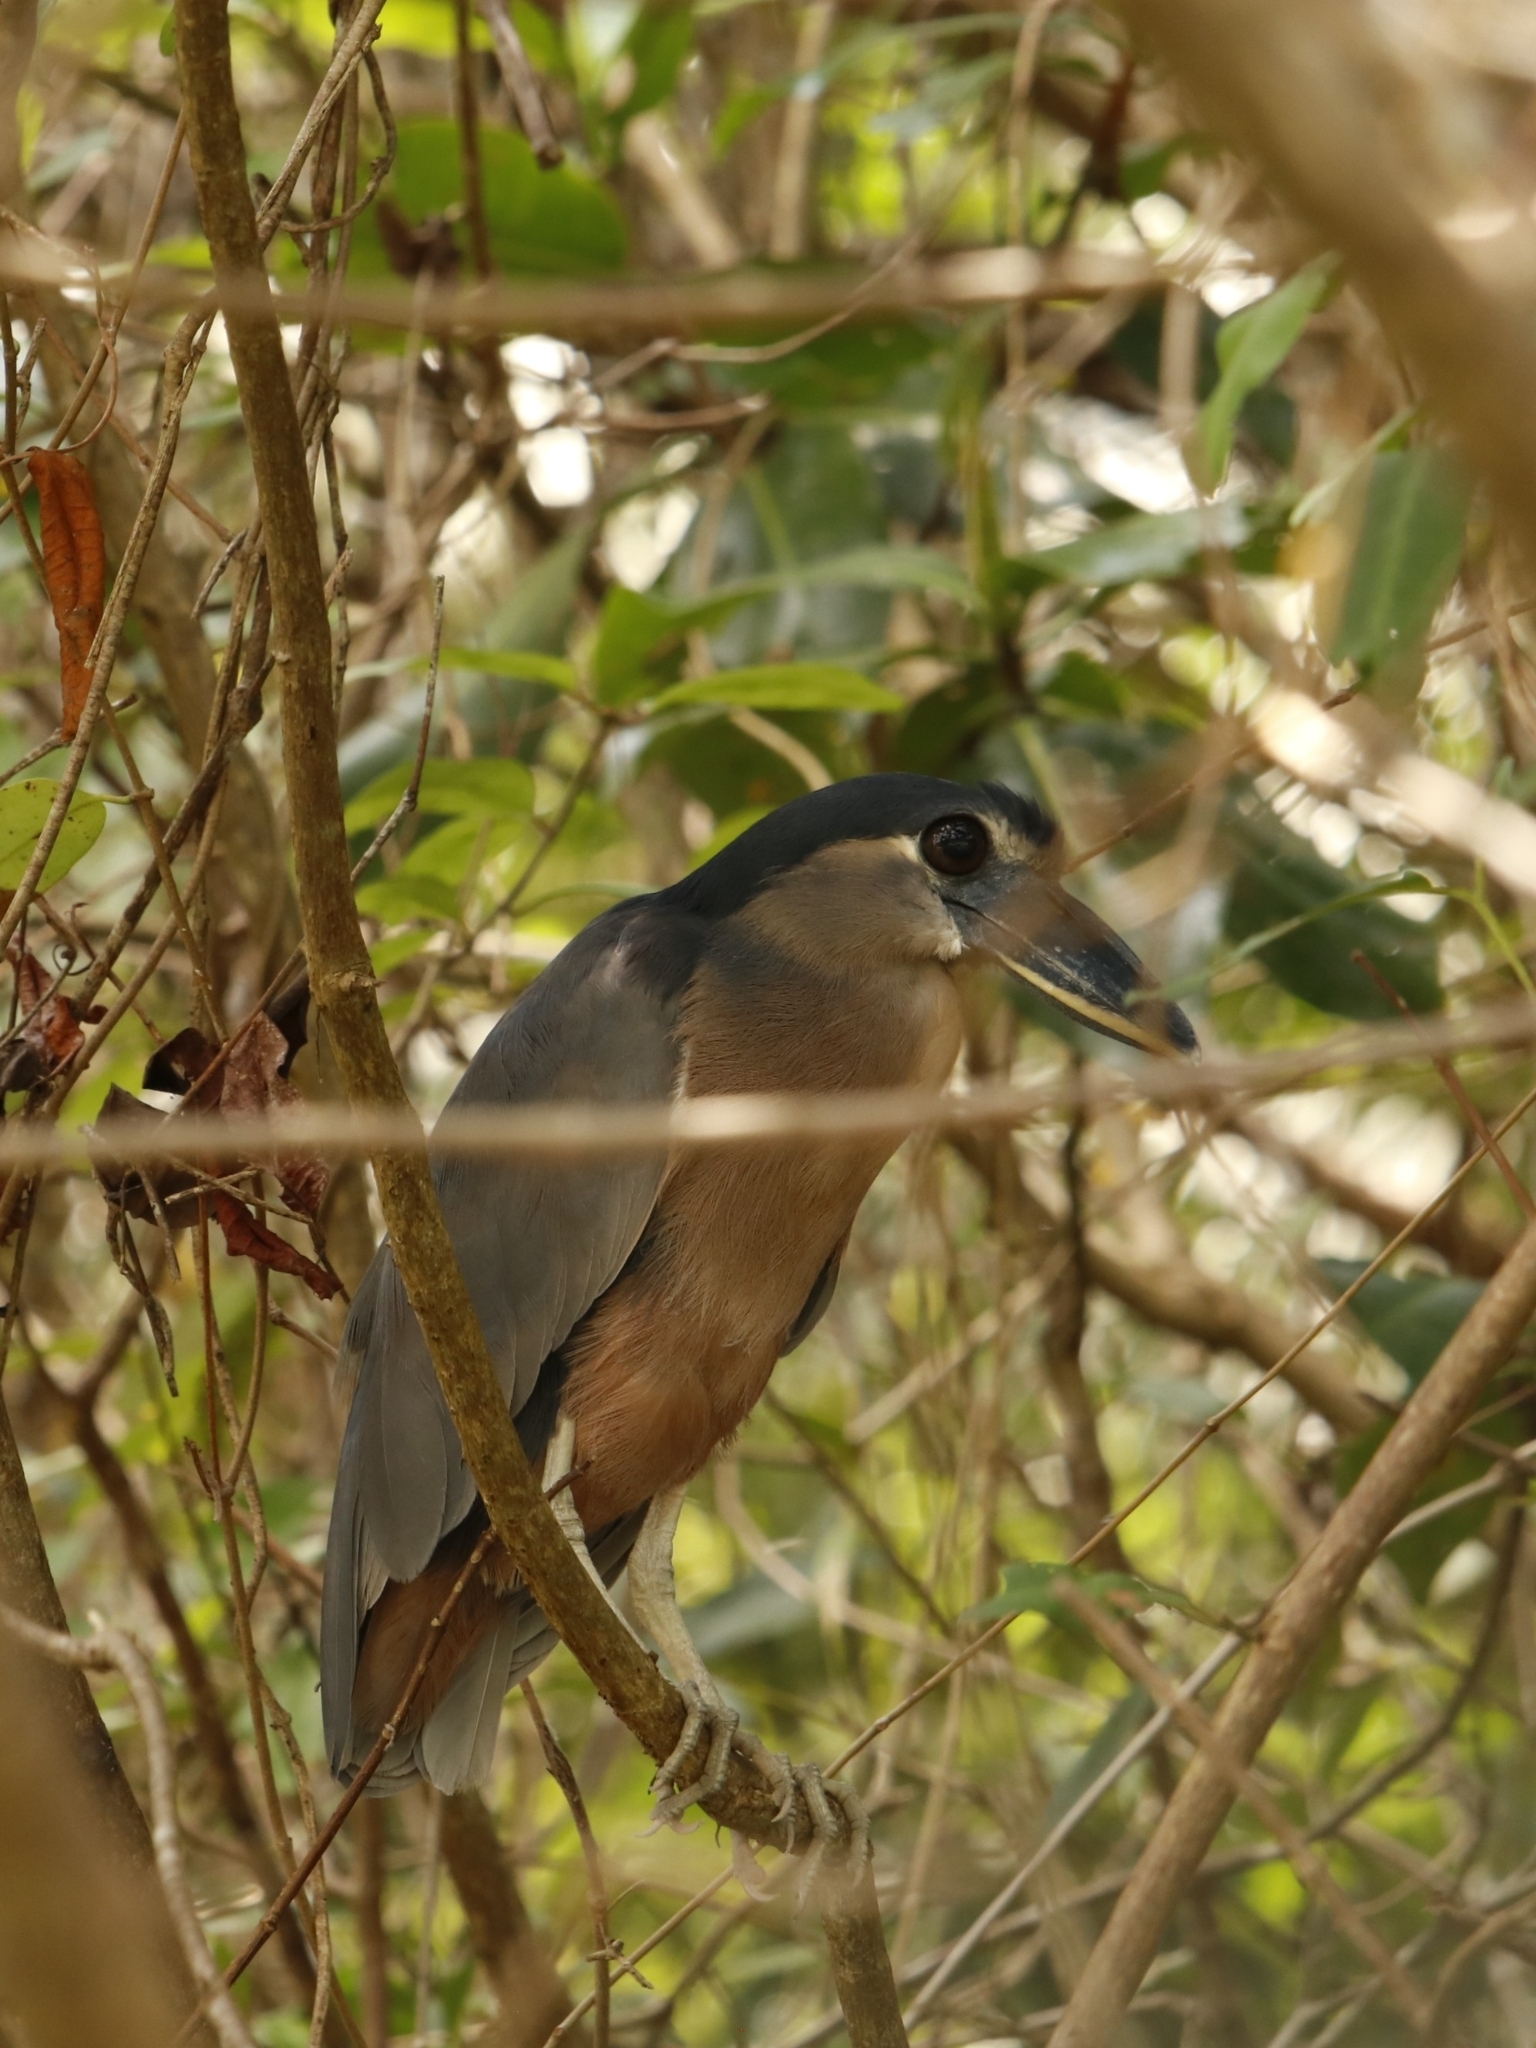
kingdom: Animalia
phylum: Chordata
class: Aves
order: Pelecaniformes
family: Ardeidae
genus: Cochlearius
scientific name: Cochlearius cochlearius
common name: Boat-billed heron
